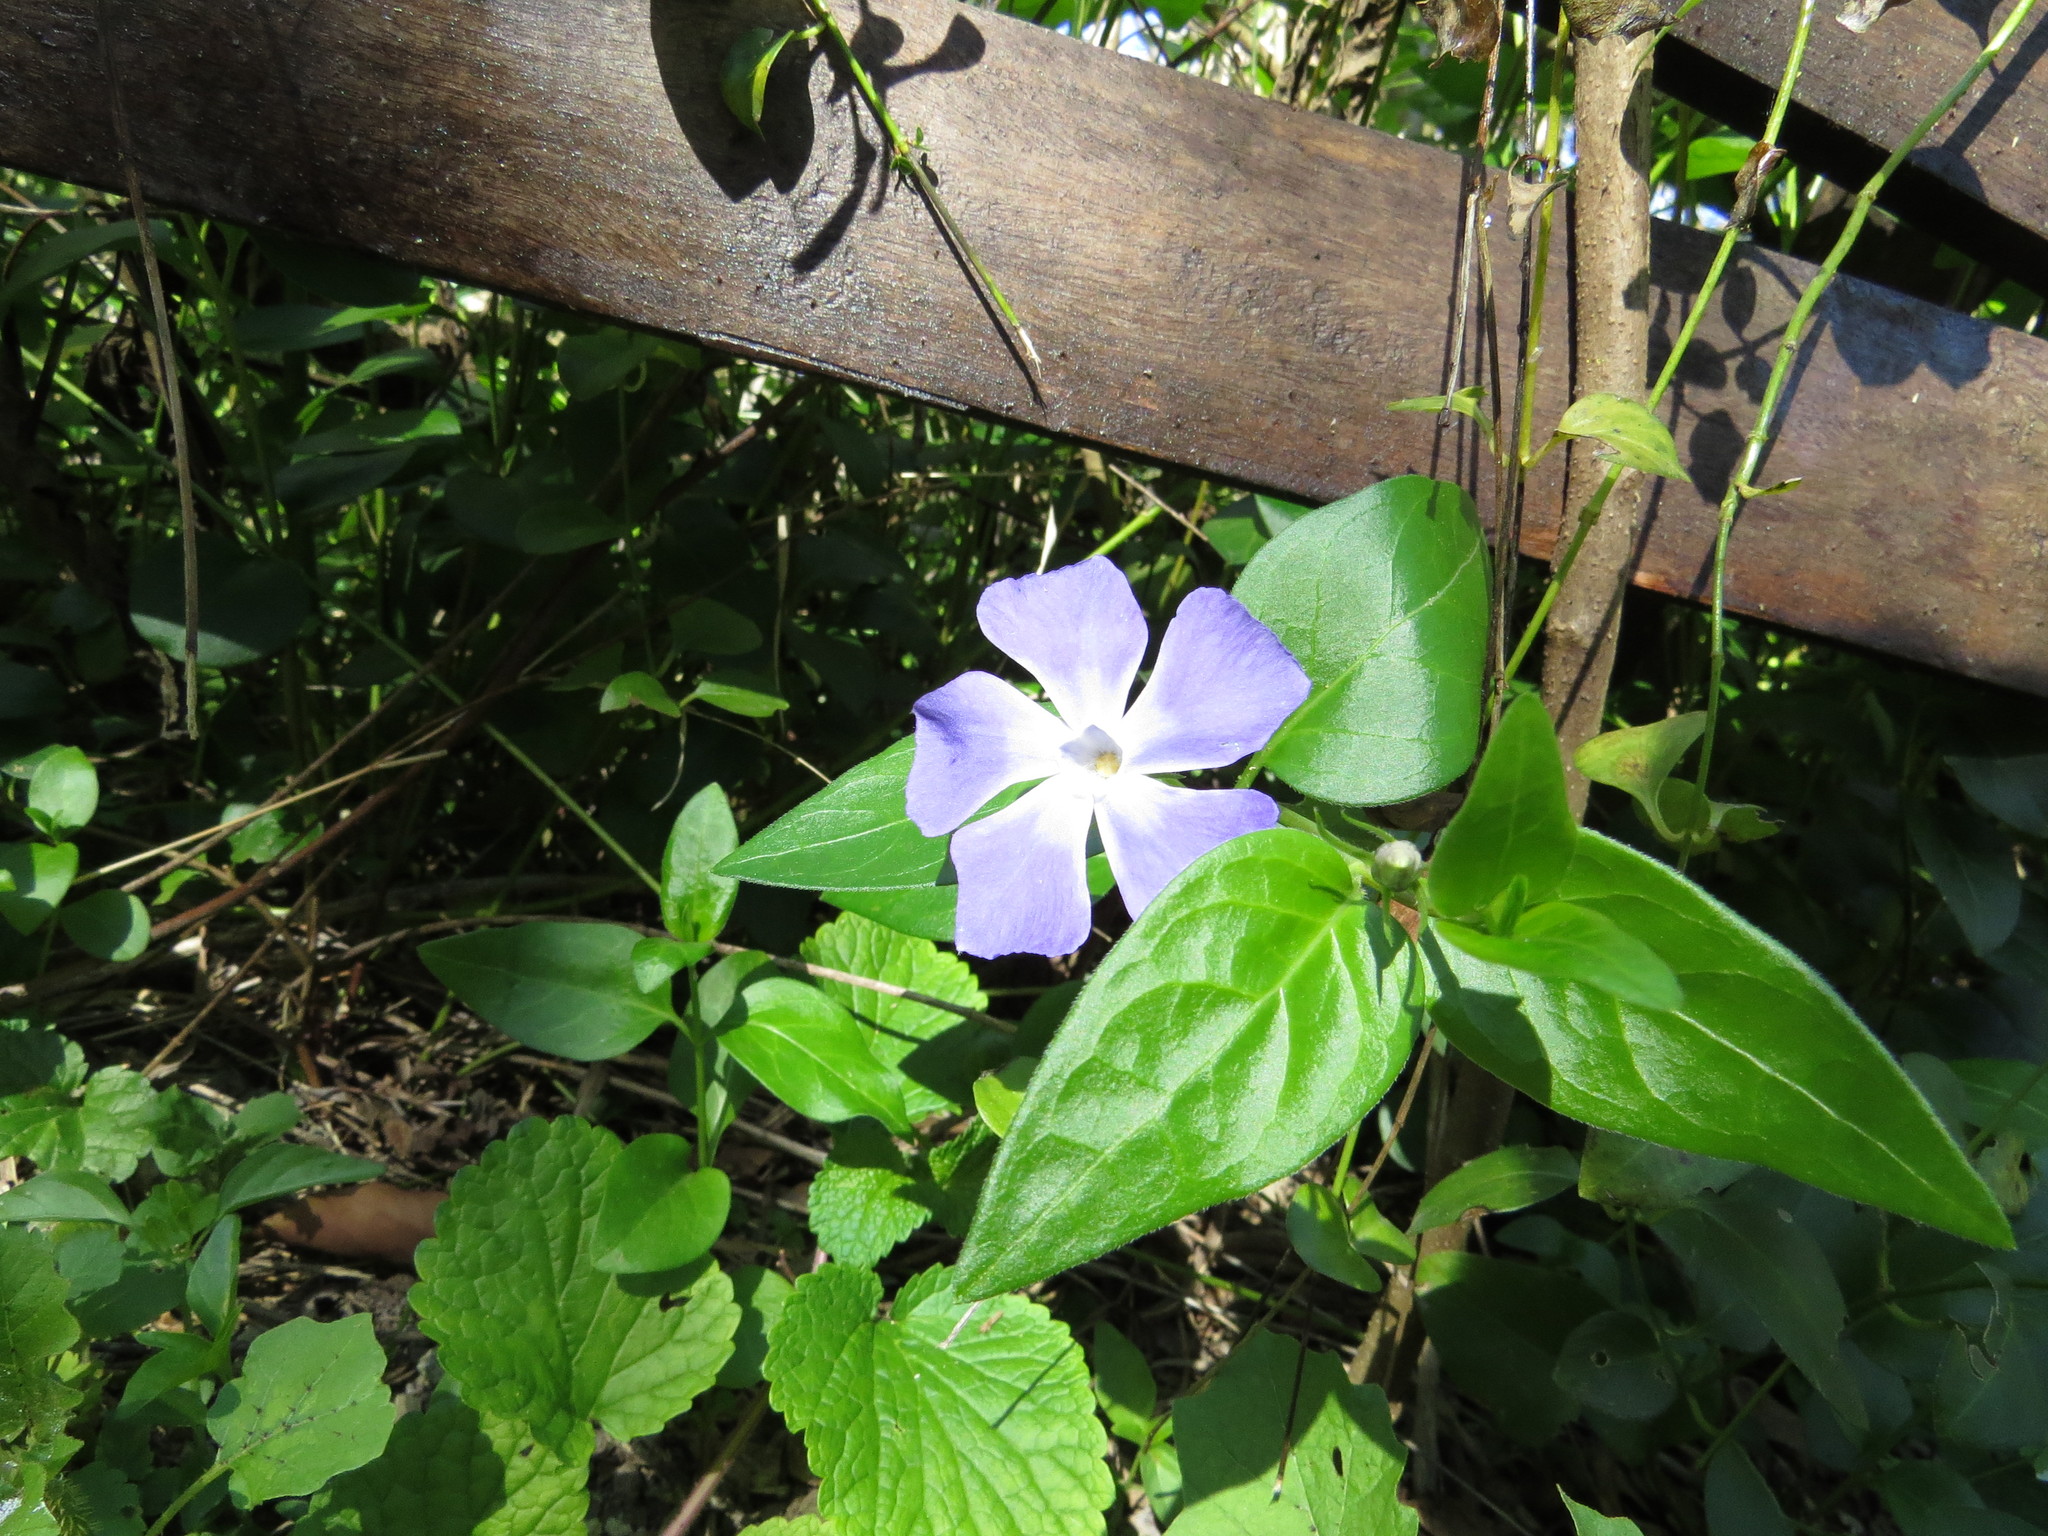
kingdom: Plantae
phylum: Tracheophyta
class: Magnoliopsida
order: Gentianales
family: Apocynaceae
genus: Vinca
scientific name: Vinca major
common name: Greater periwinkle
